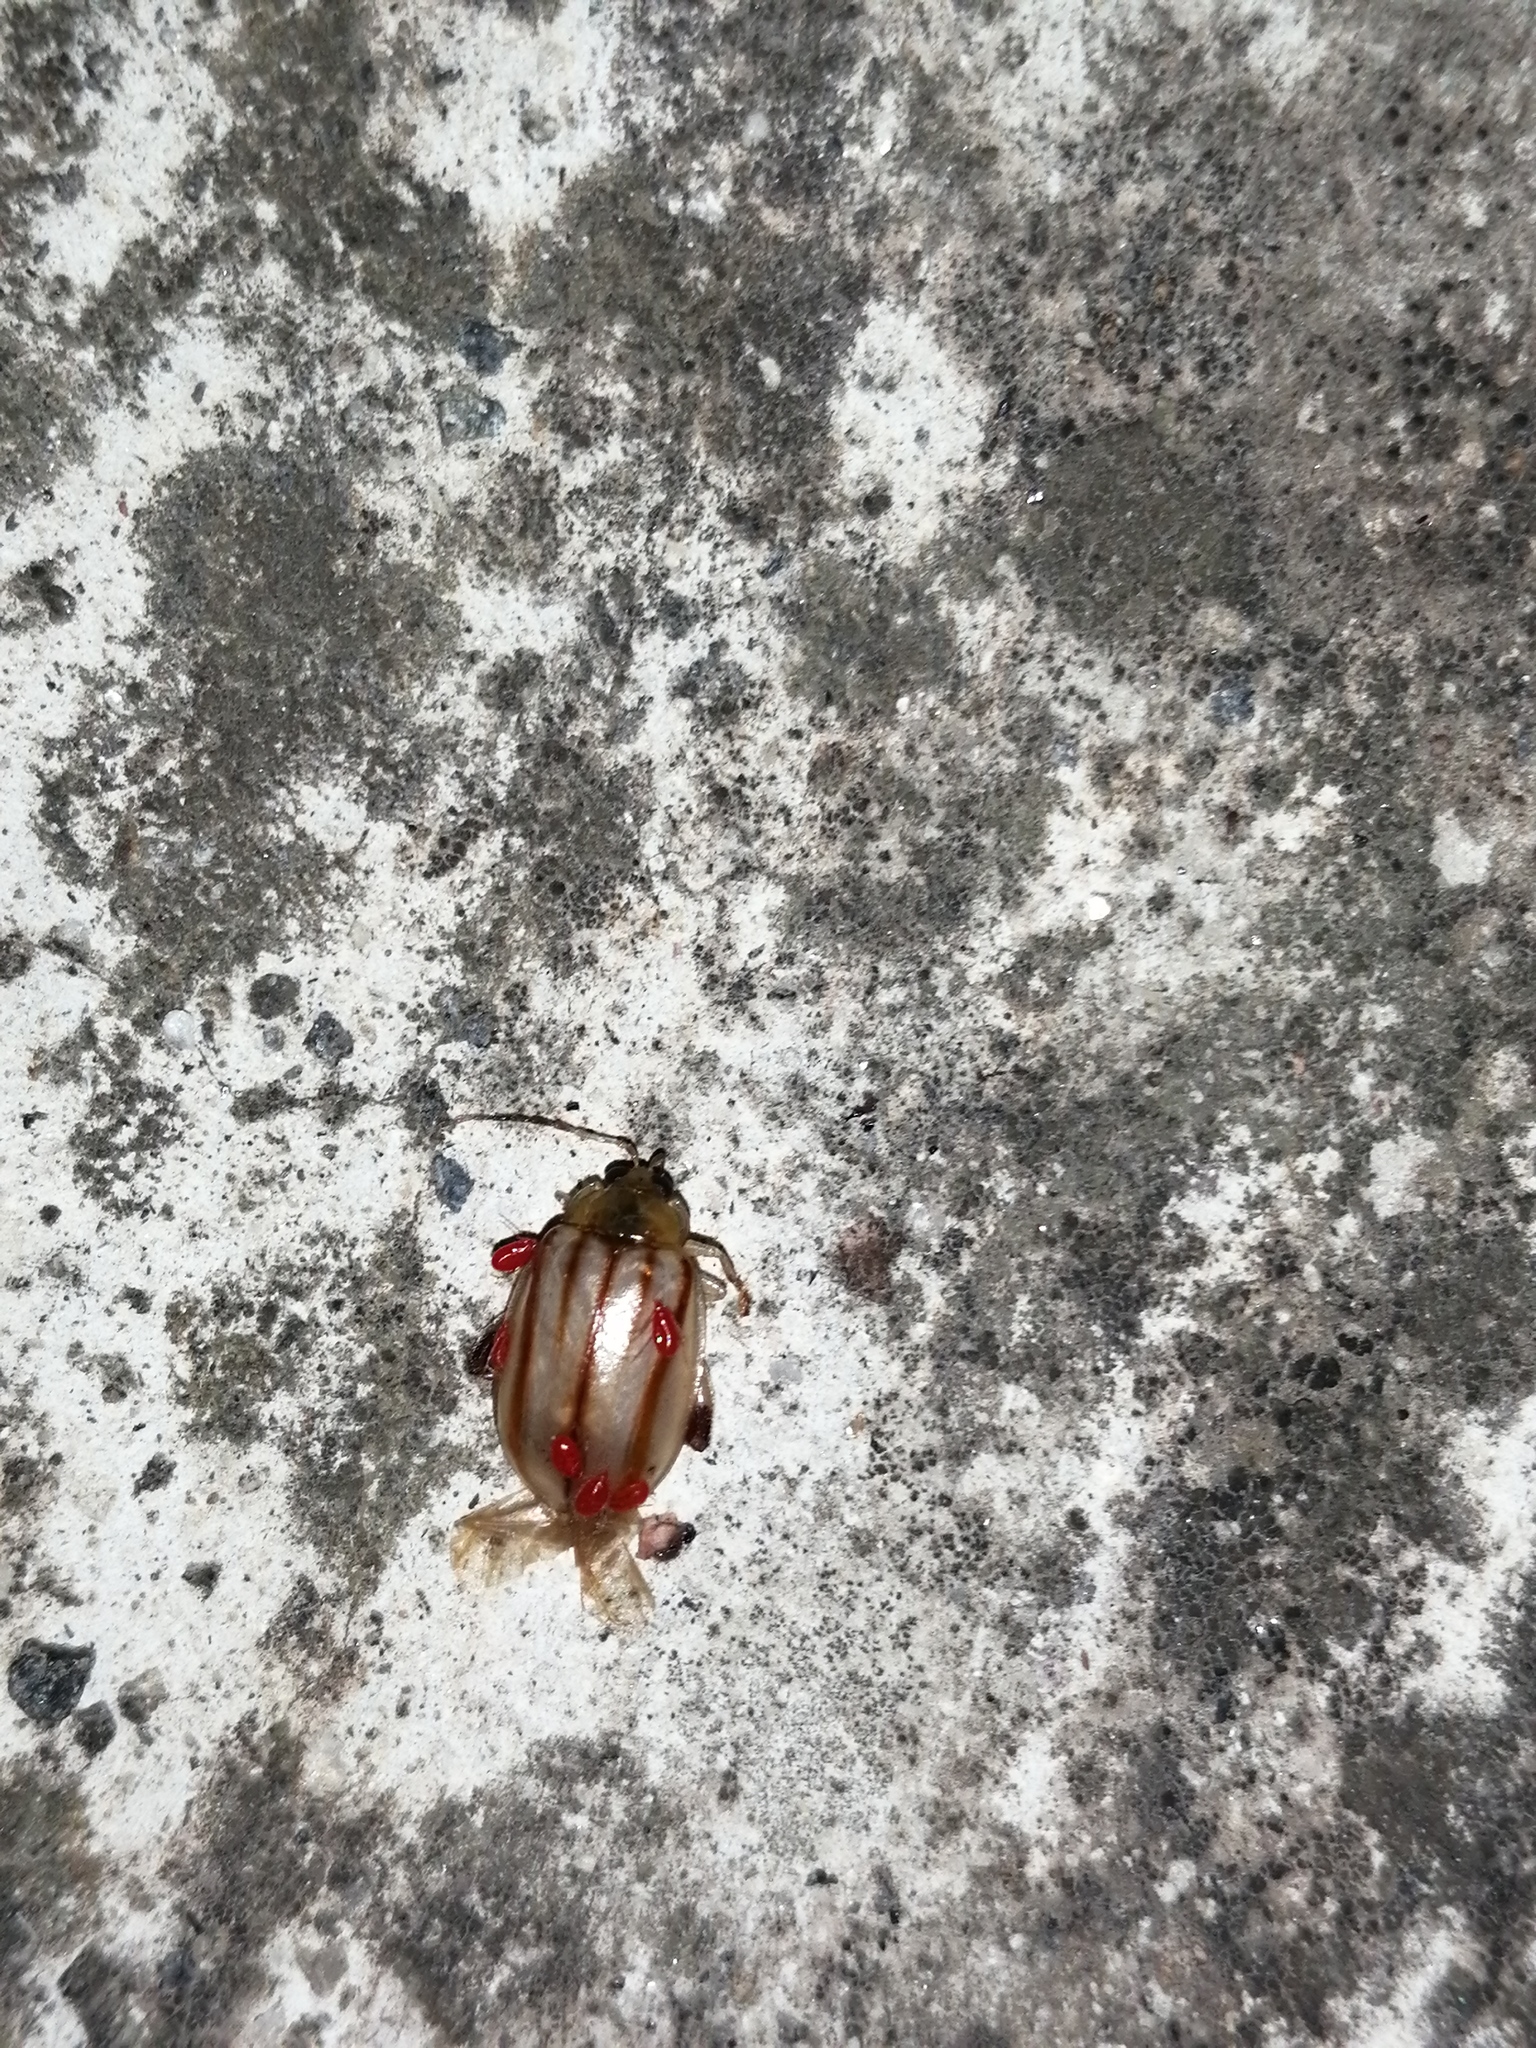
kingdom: Animalia
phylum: Arthropoda
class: Insecta
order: Coleoptera
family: Chrysomelidae
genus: Walterianella
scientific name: Walterianella
